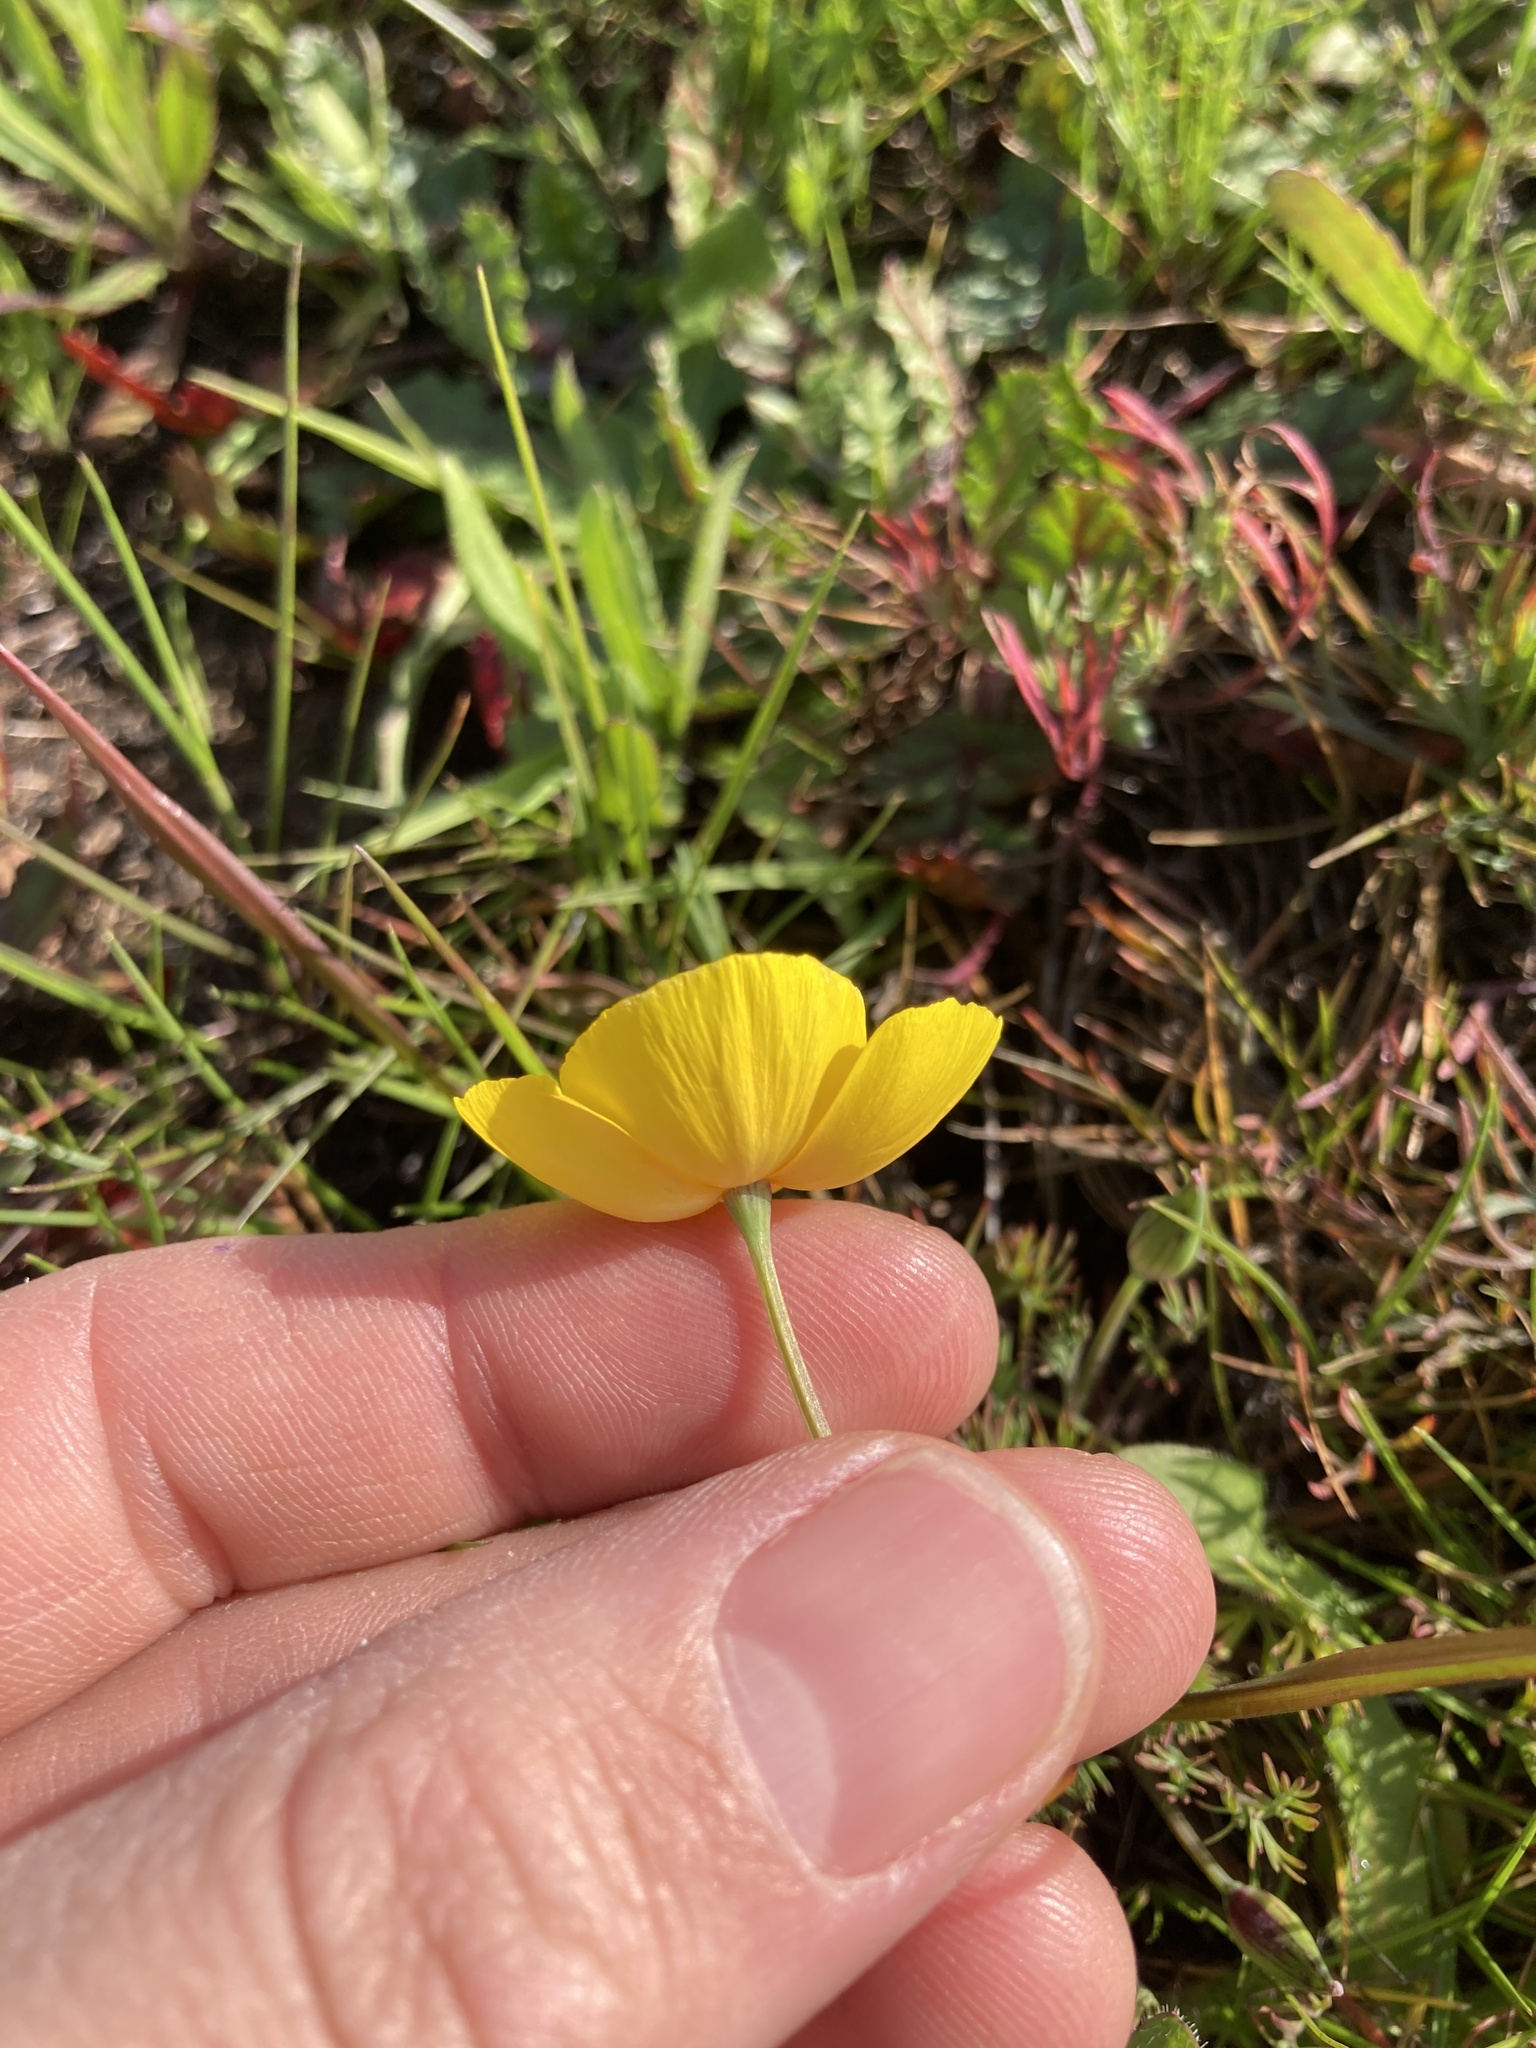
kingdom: Plantae
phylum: Tracheophyta
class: Magnoliopsida
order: Ranunculales
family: Papaveraceae
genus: Eschscholzia
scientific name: Eschscholzia lobbii
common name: Frying-pans
